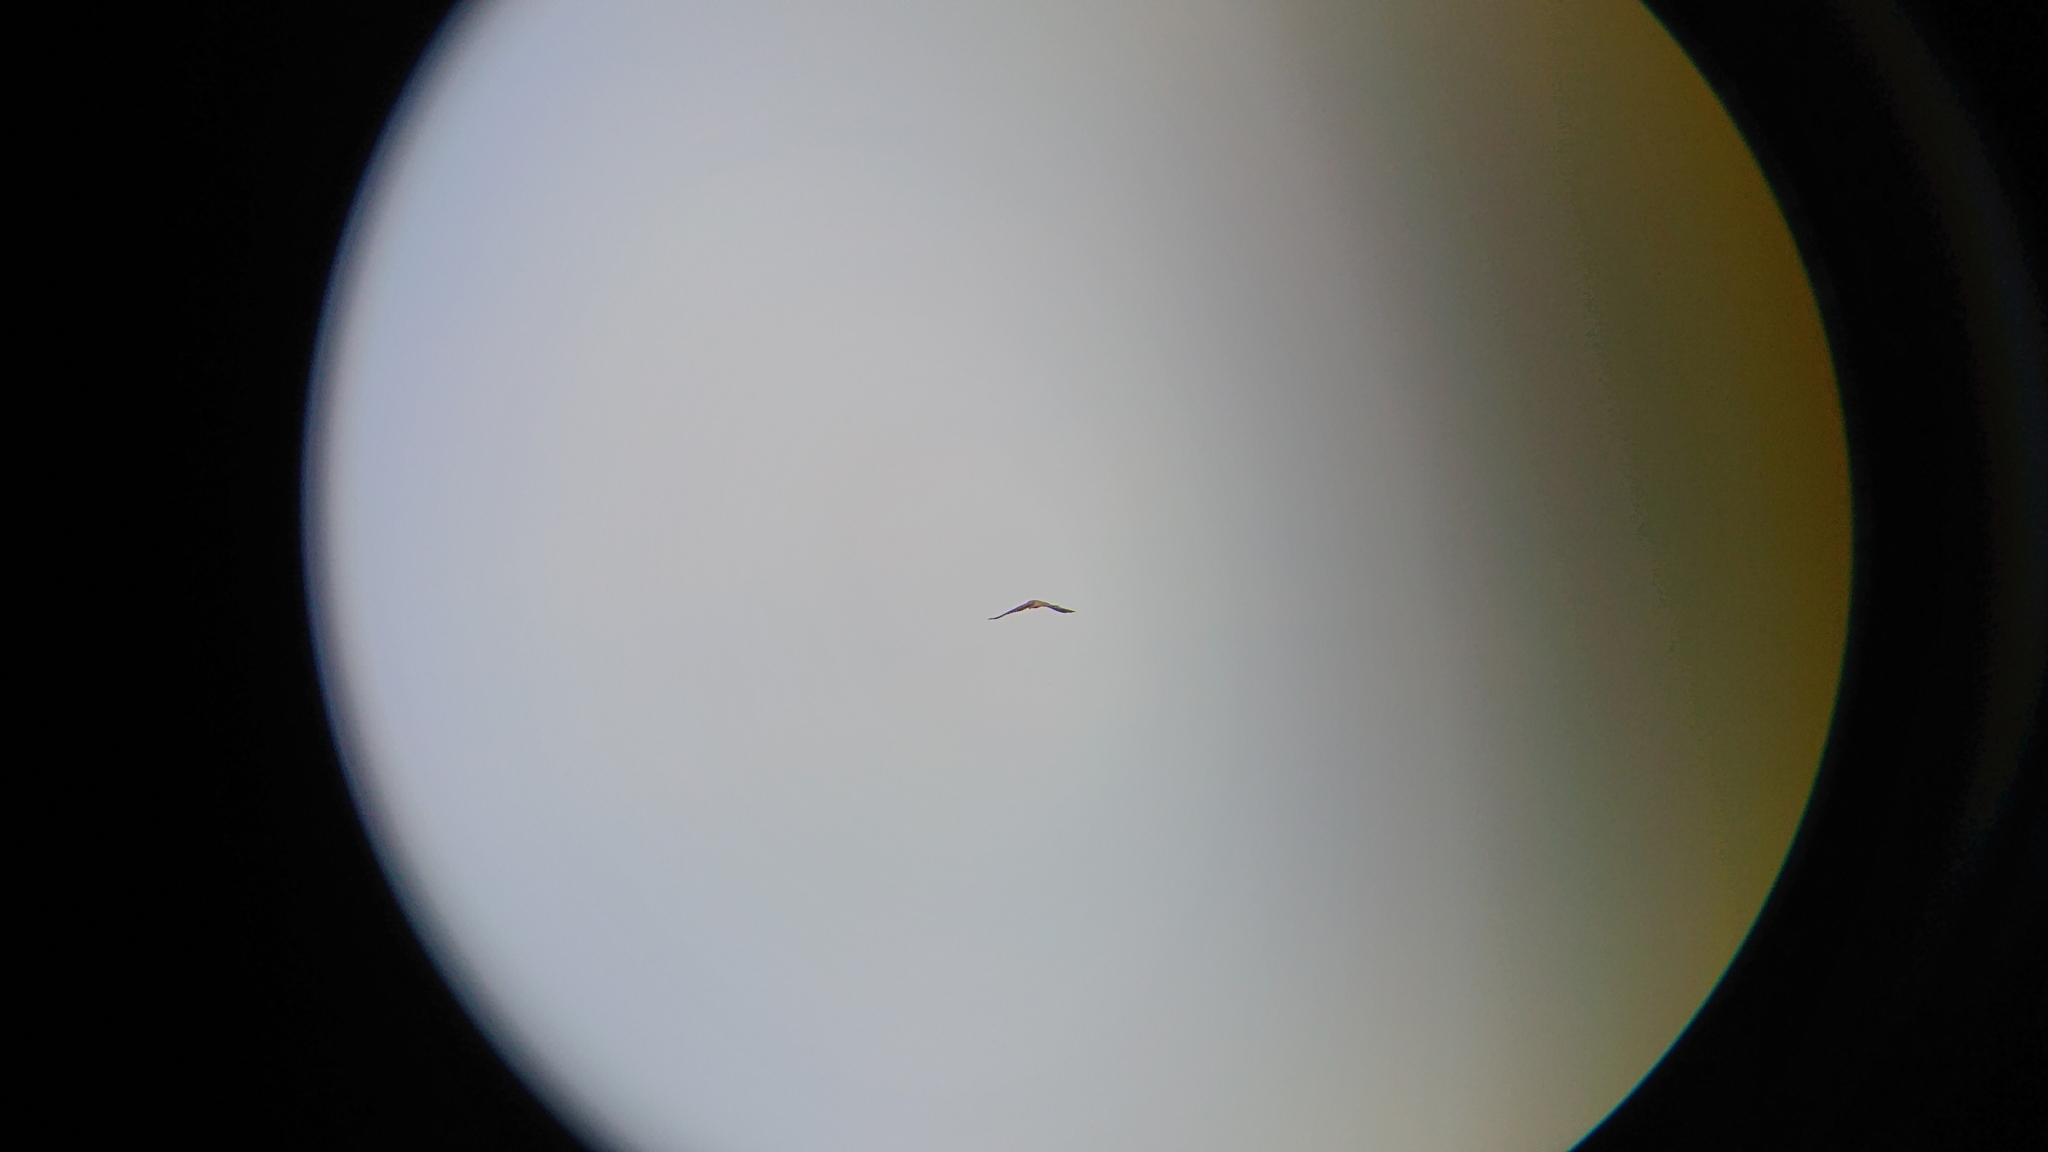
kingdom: Animalia
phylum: Chordata
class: Aves
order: Falconiformes
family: Falconidae
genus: Falco
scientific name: Falco tinnunculus
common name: Common kestrel
